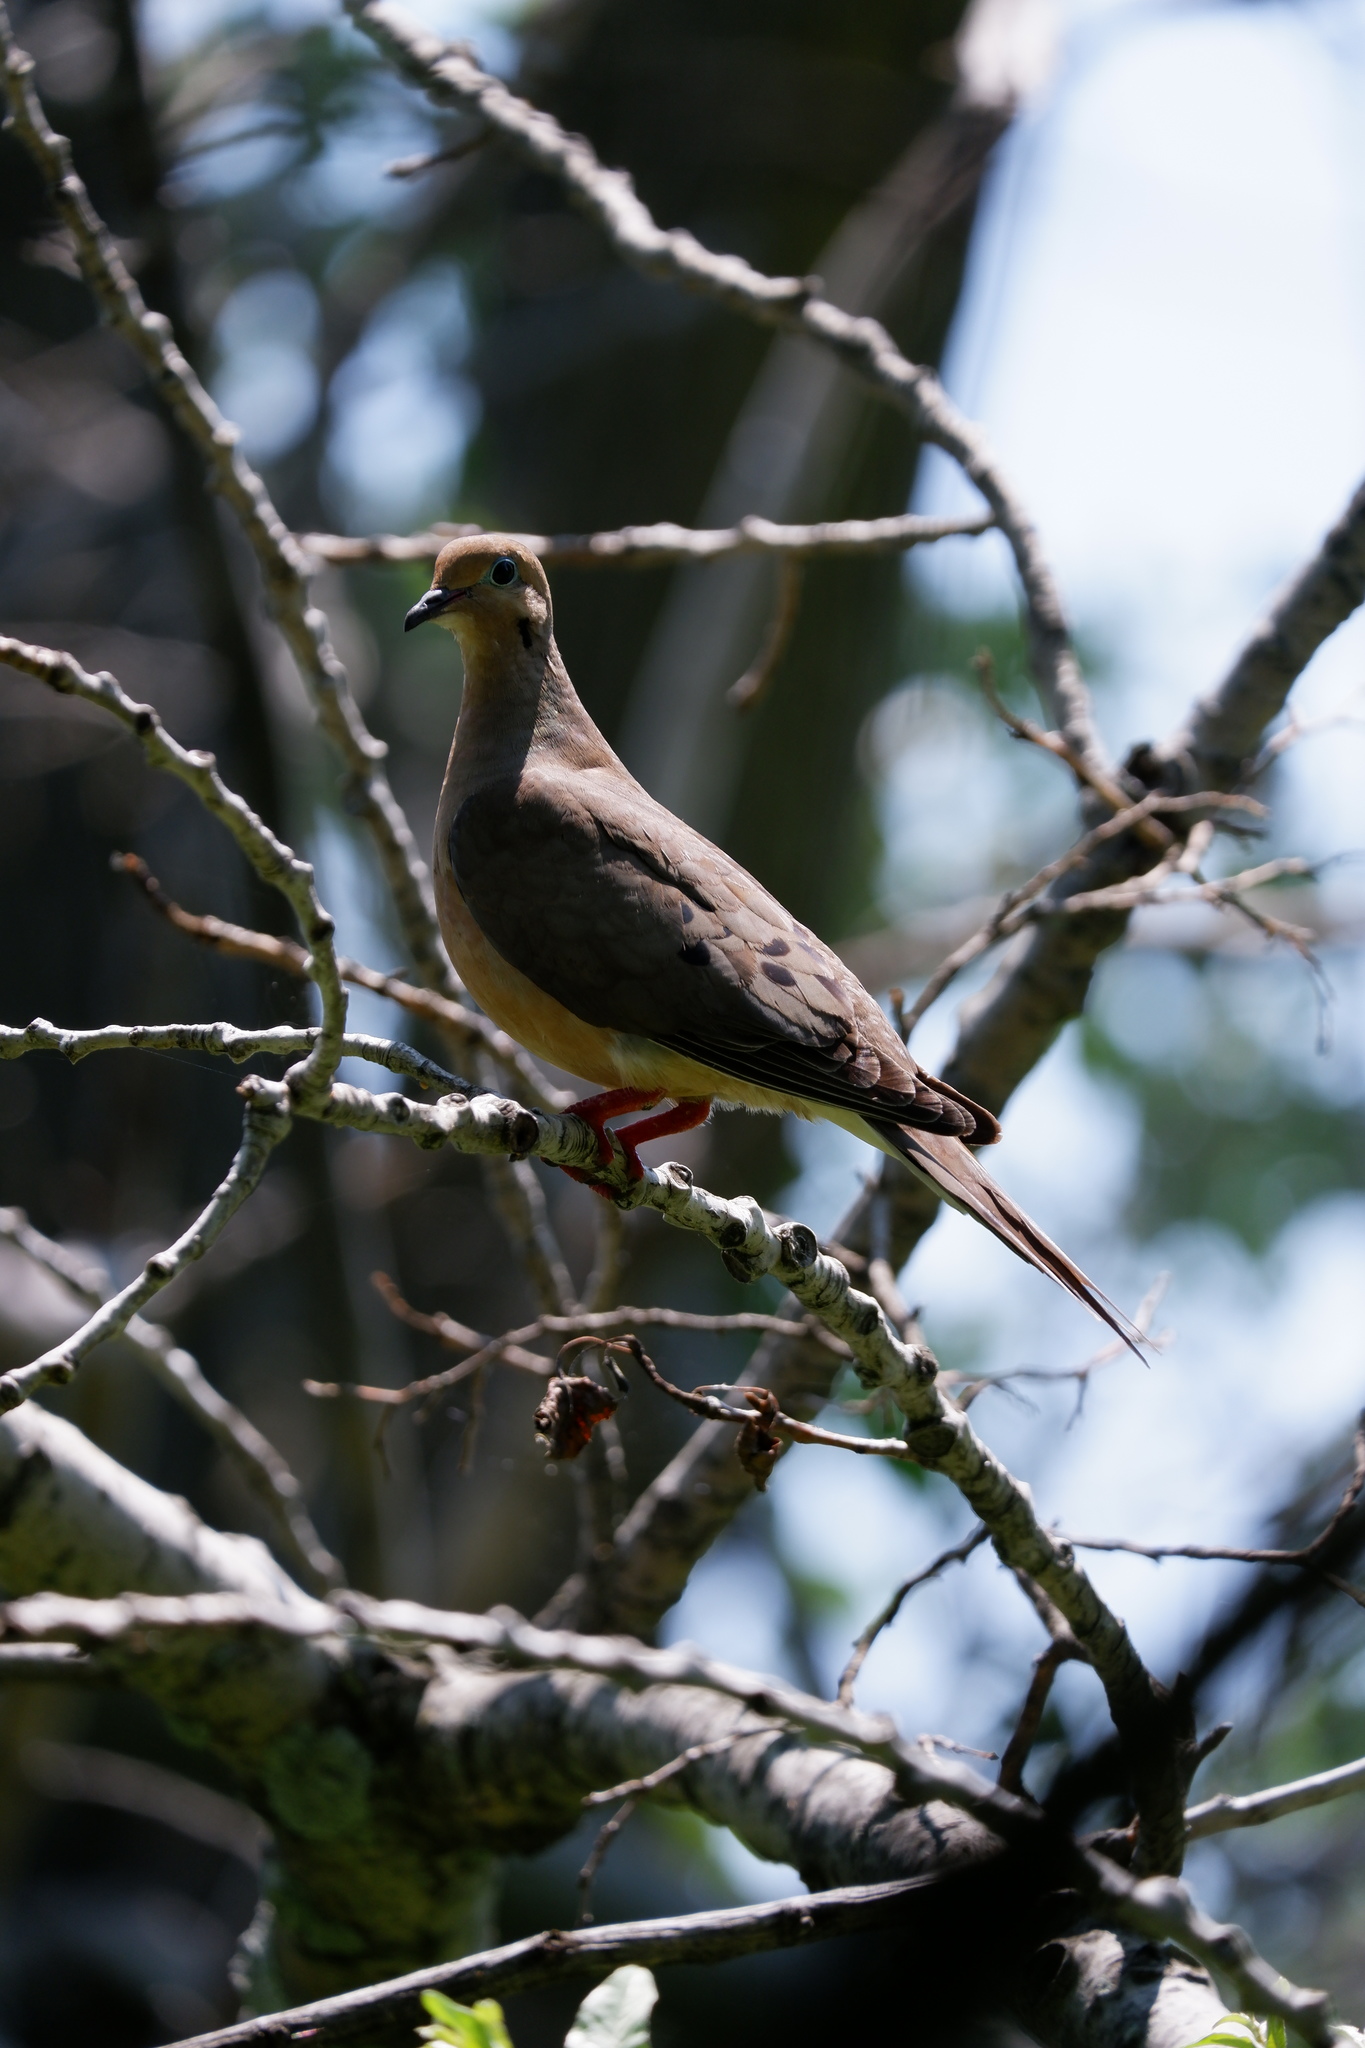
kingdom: Animalia
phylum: Chordata
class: Aves
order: Columbiformes
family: Columbidae
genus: Zenaida
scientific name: Zenaida macroura
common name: Mourning dove
